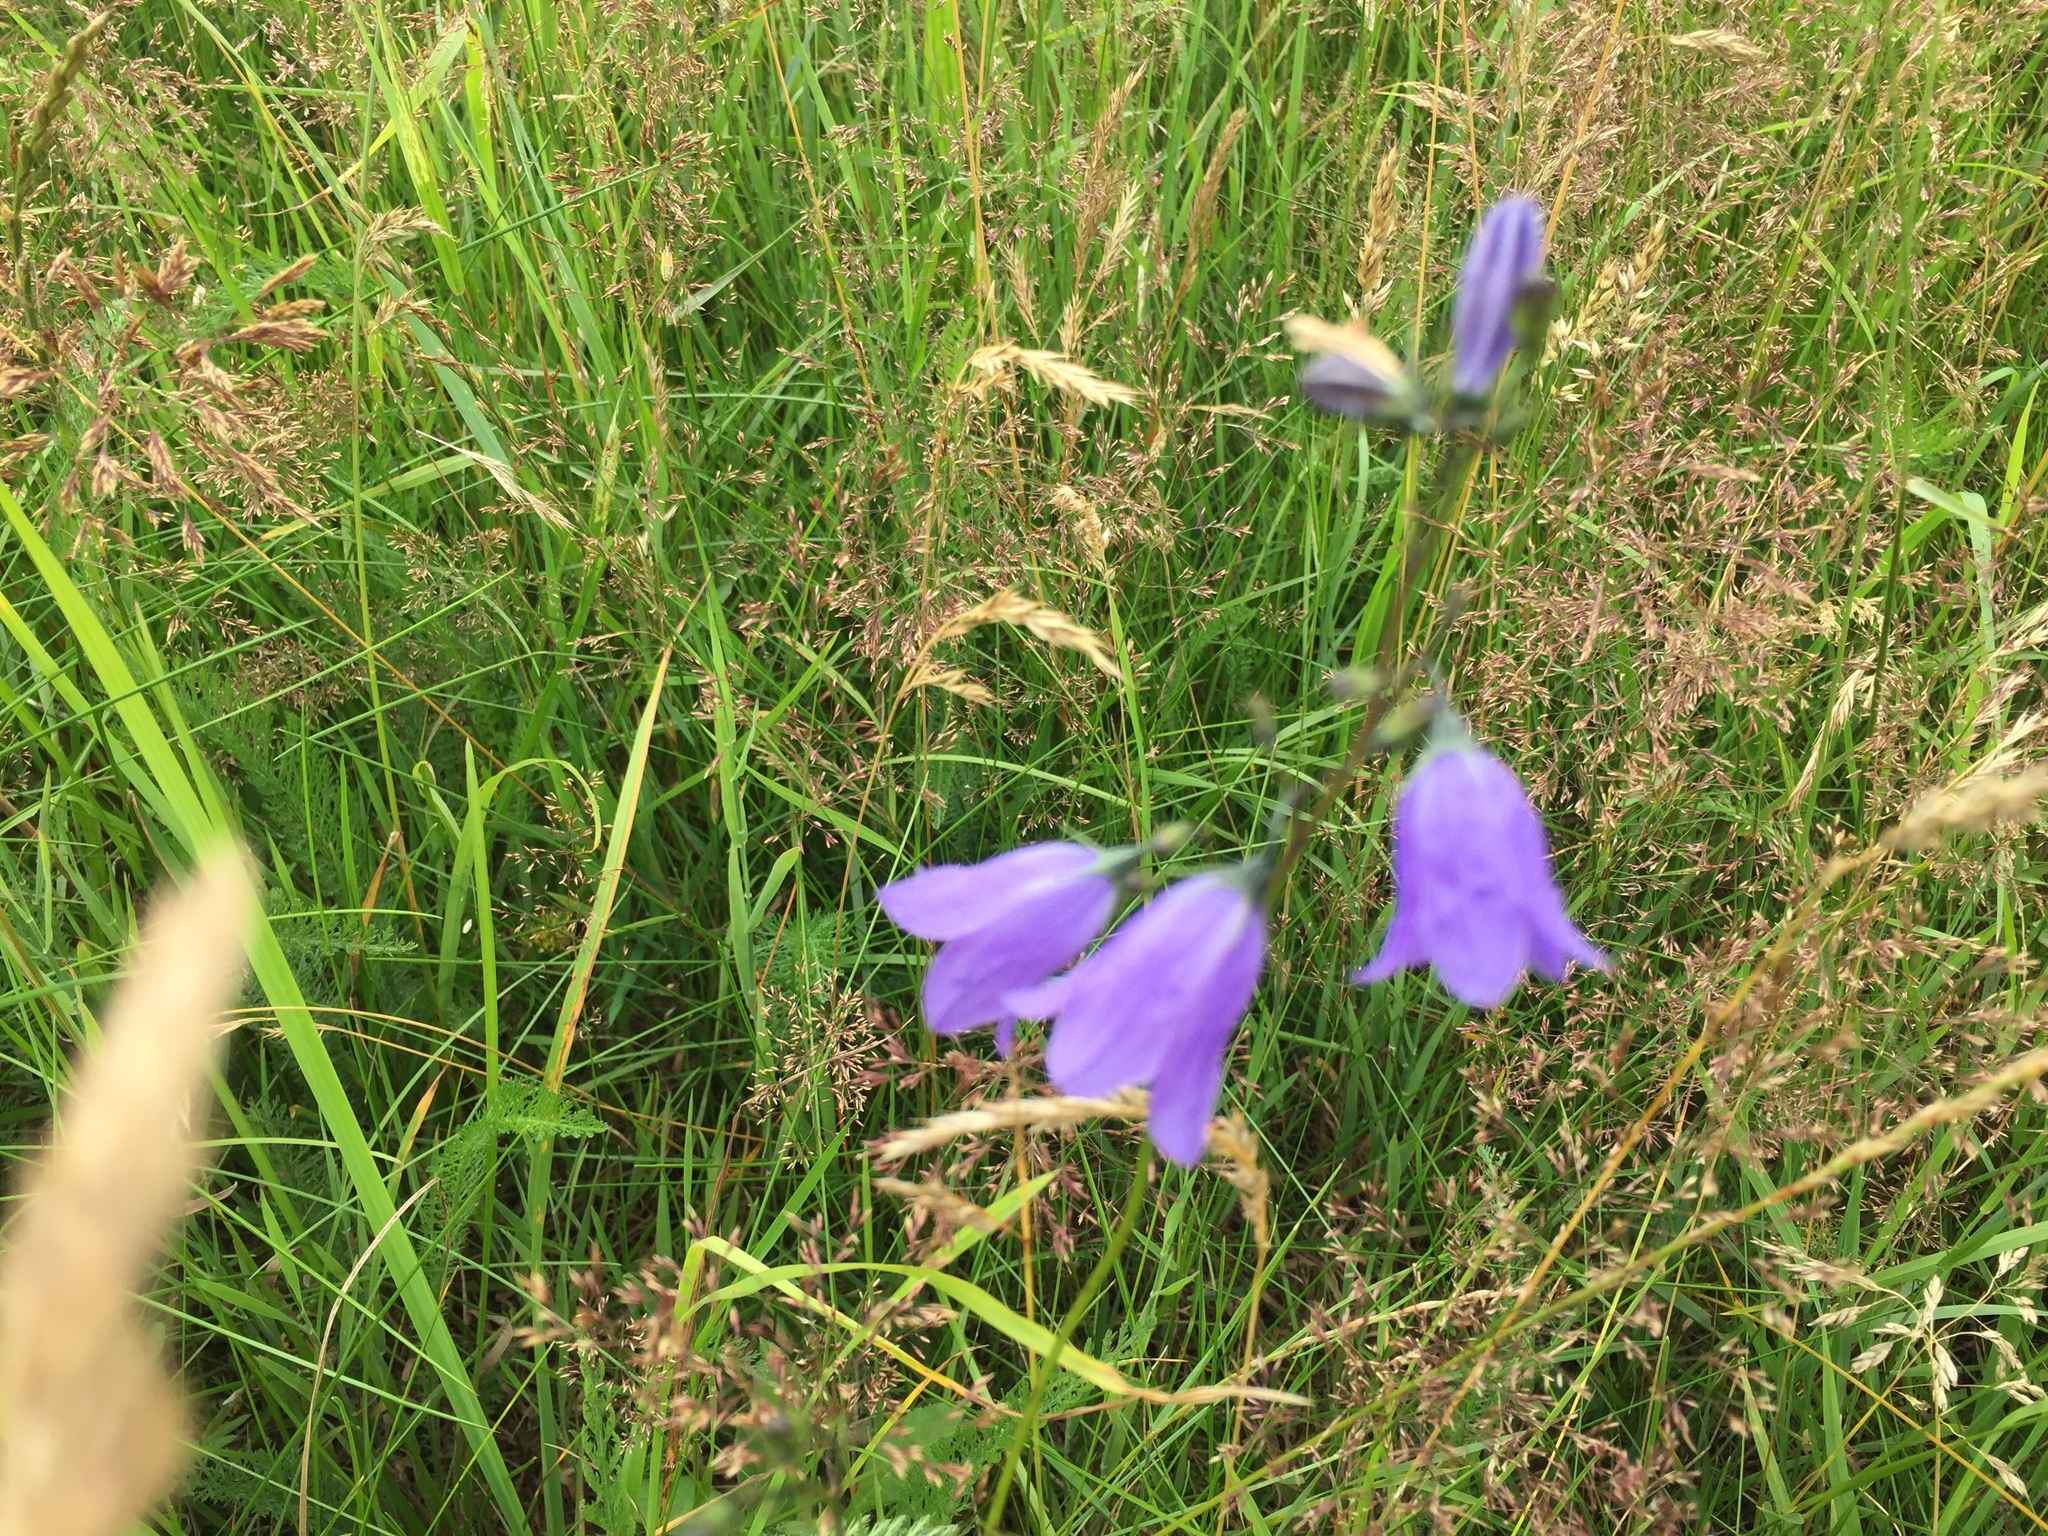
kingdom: Plantae
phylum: Tracheophyta
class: Magnoliopsida
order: Asterales
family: Campanulaceae
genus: Campanula
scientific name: Campanula rotundifolia
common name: Harebell
